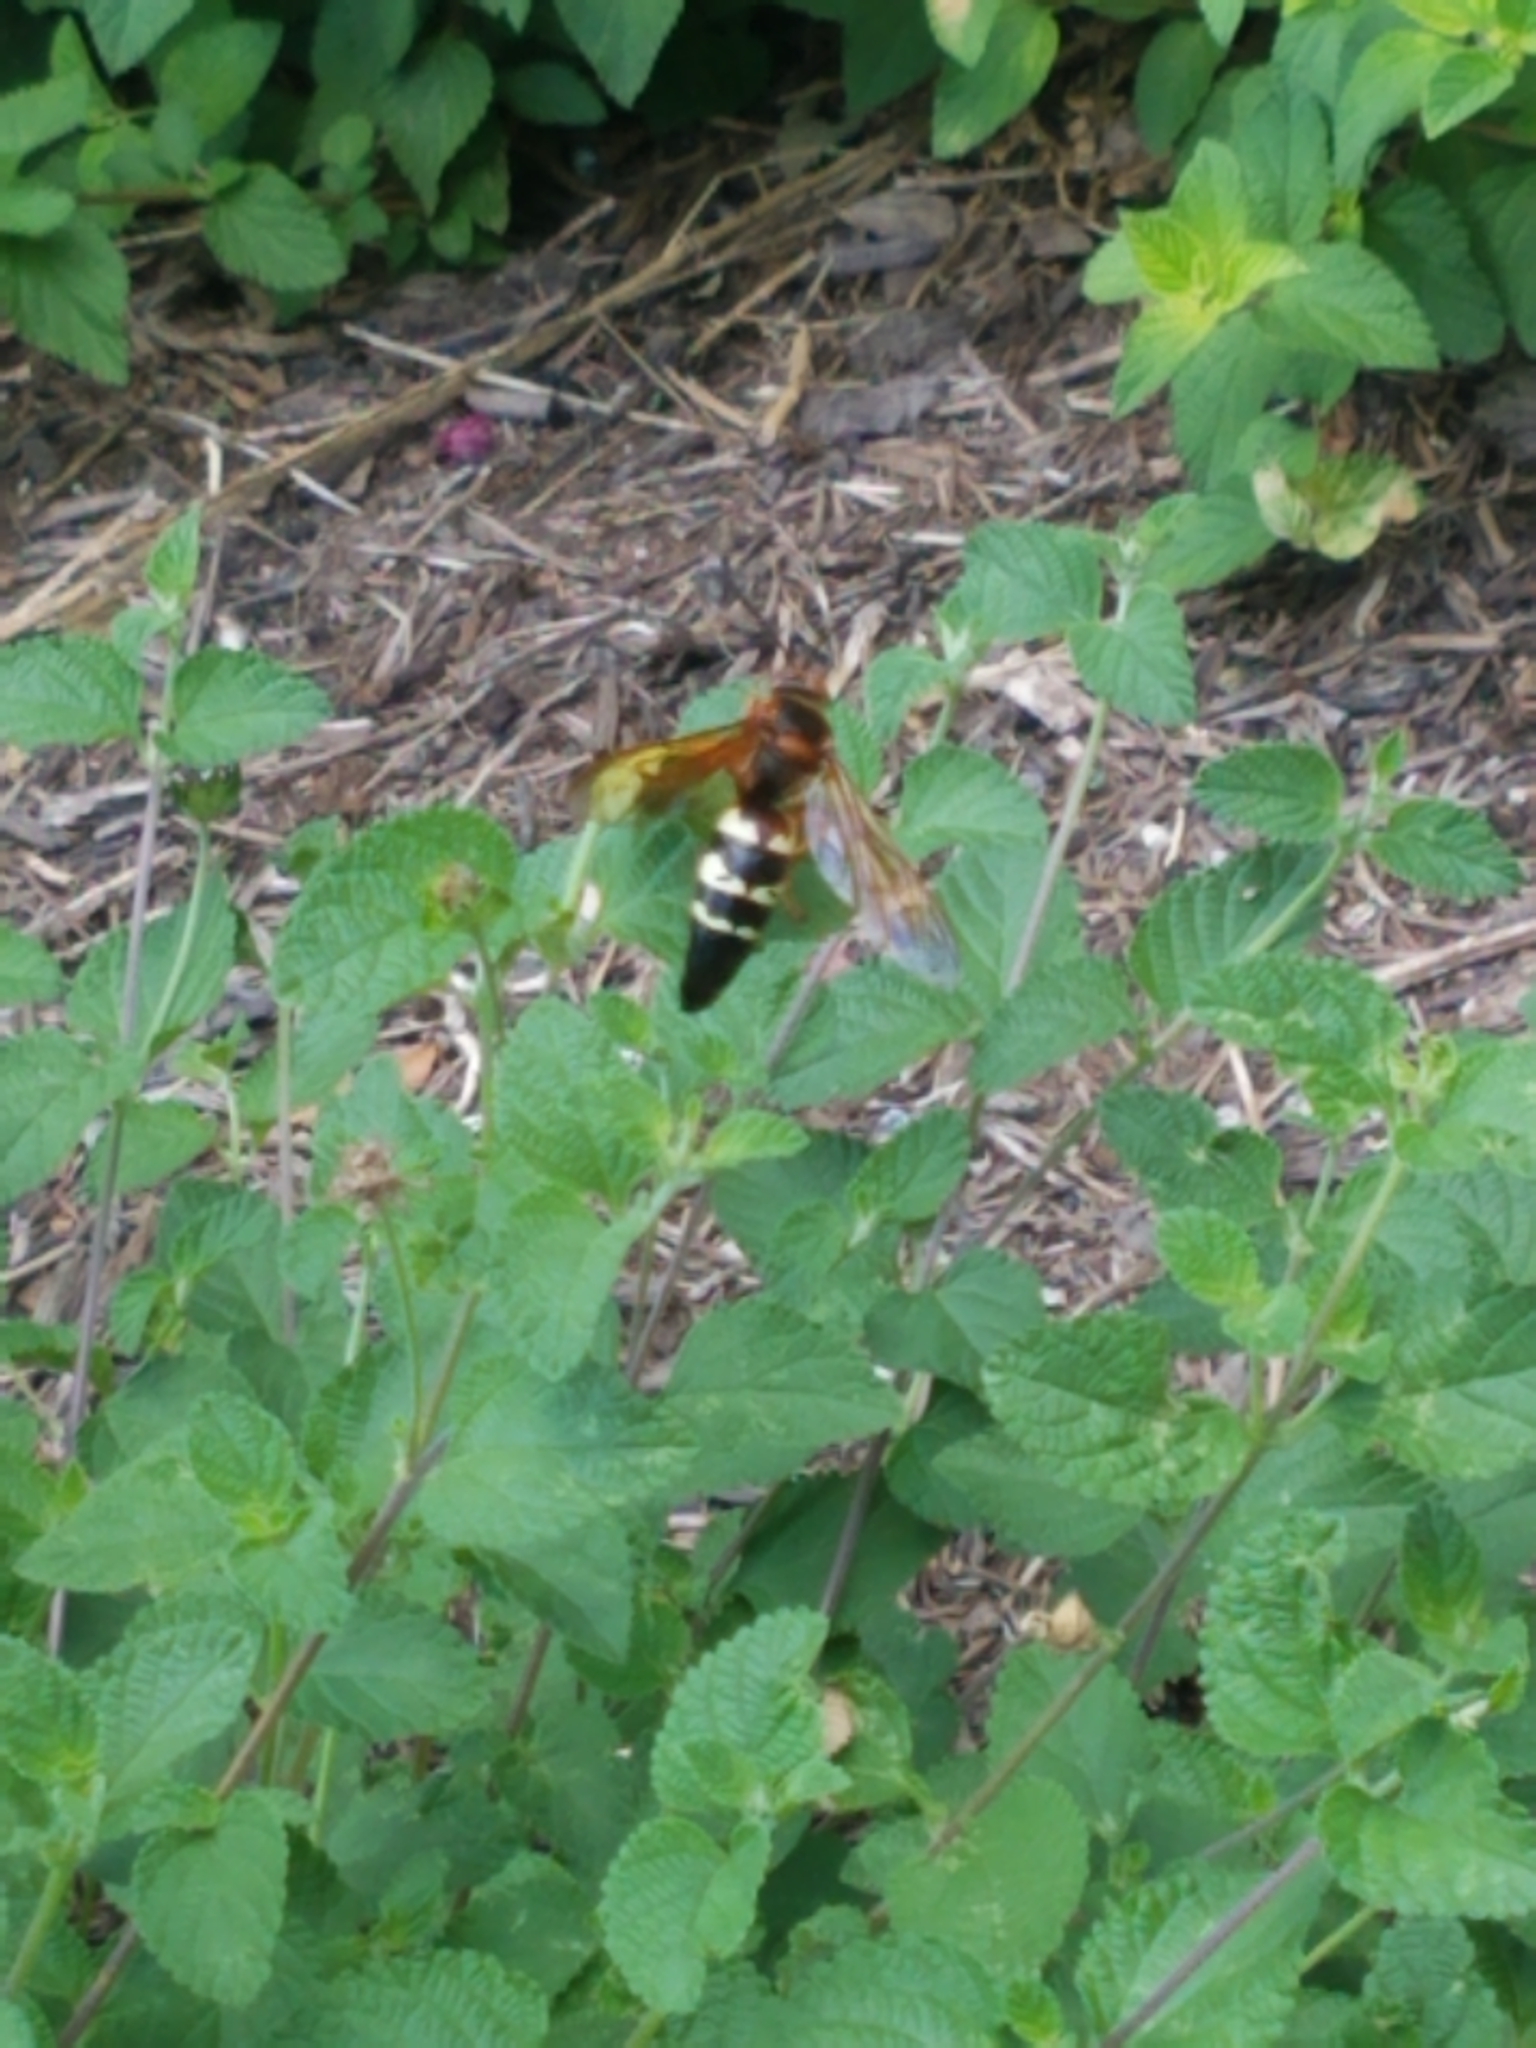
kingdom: Animalia
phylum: Arthropoda
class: Insecta
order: Hymenoptera
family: Crabronidae
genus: Sphecius
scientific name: Sphecius speciosus
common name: Cicada killer
